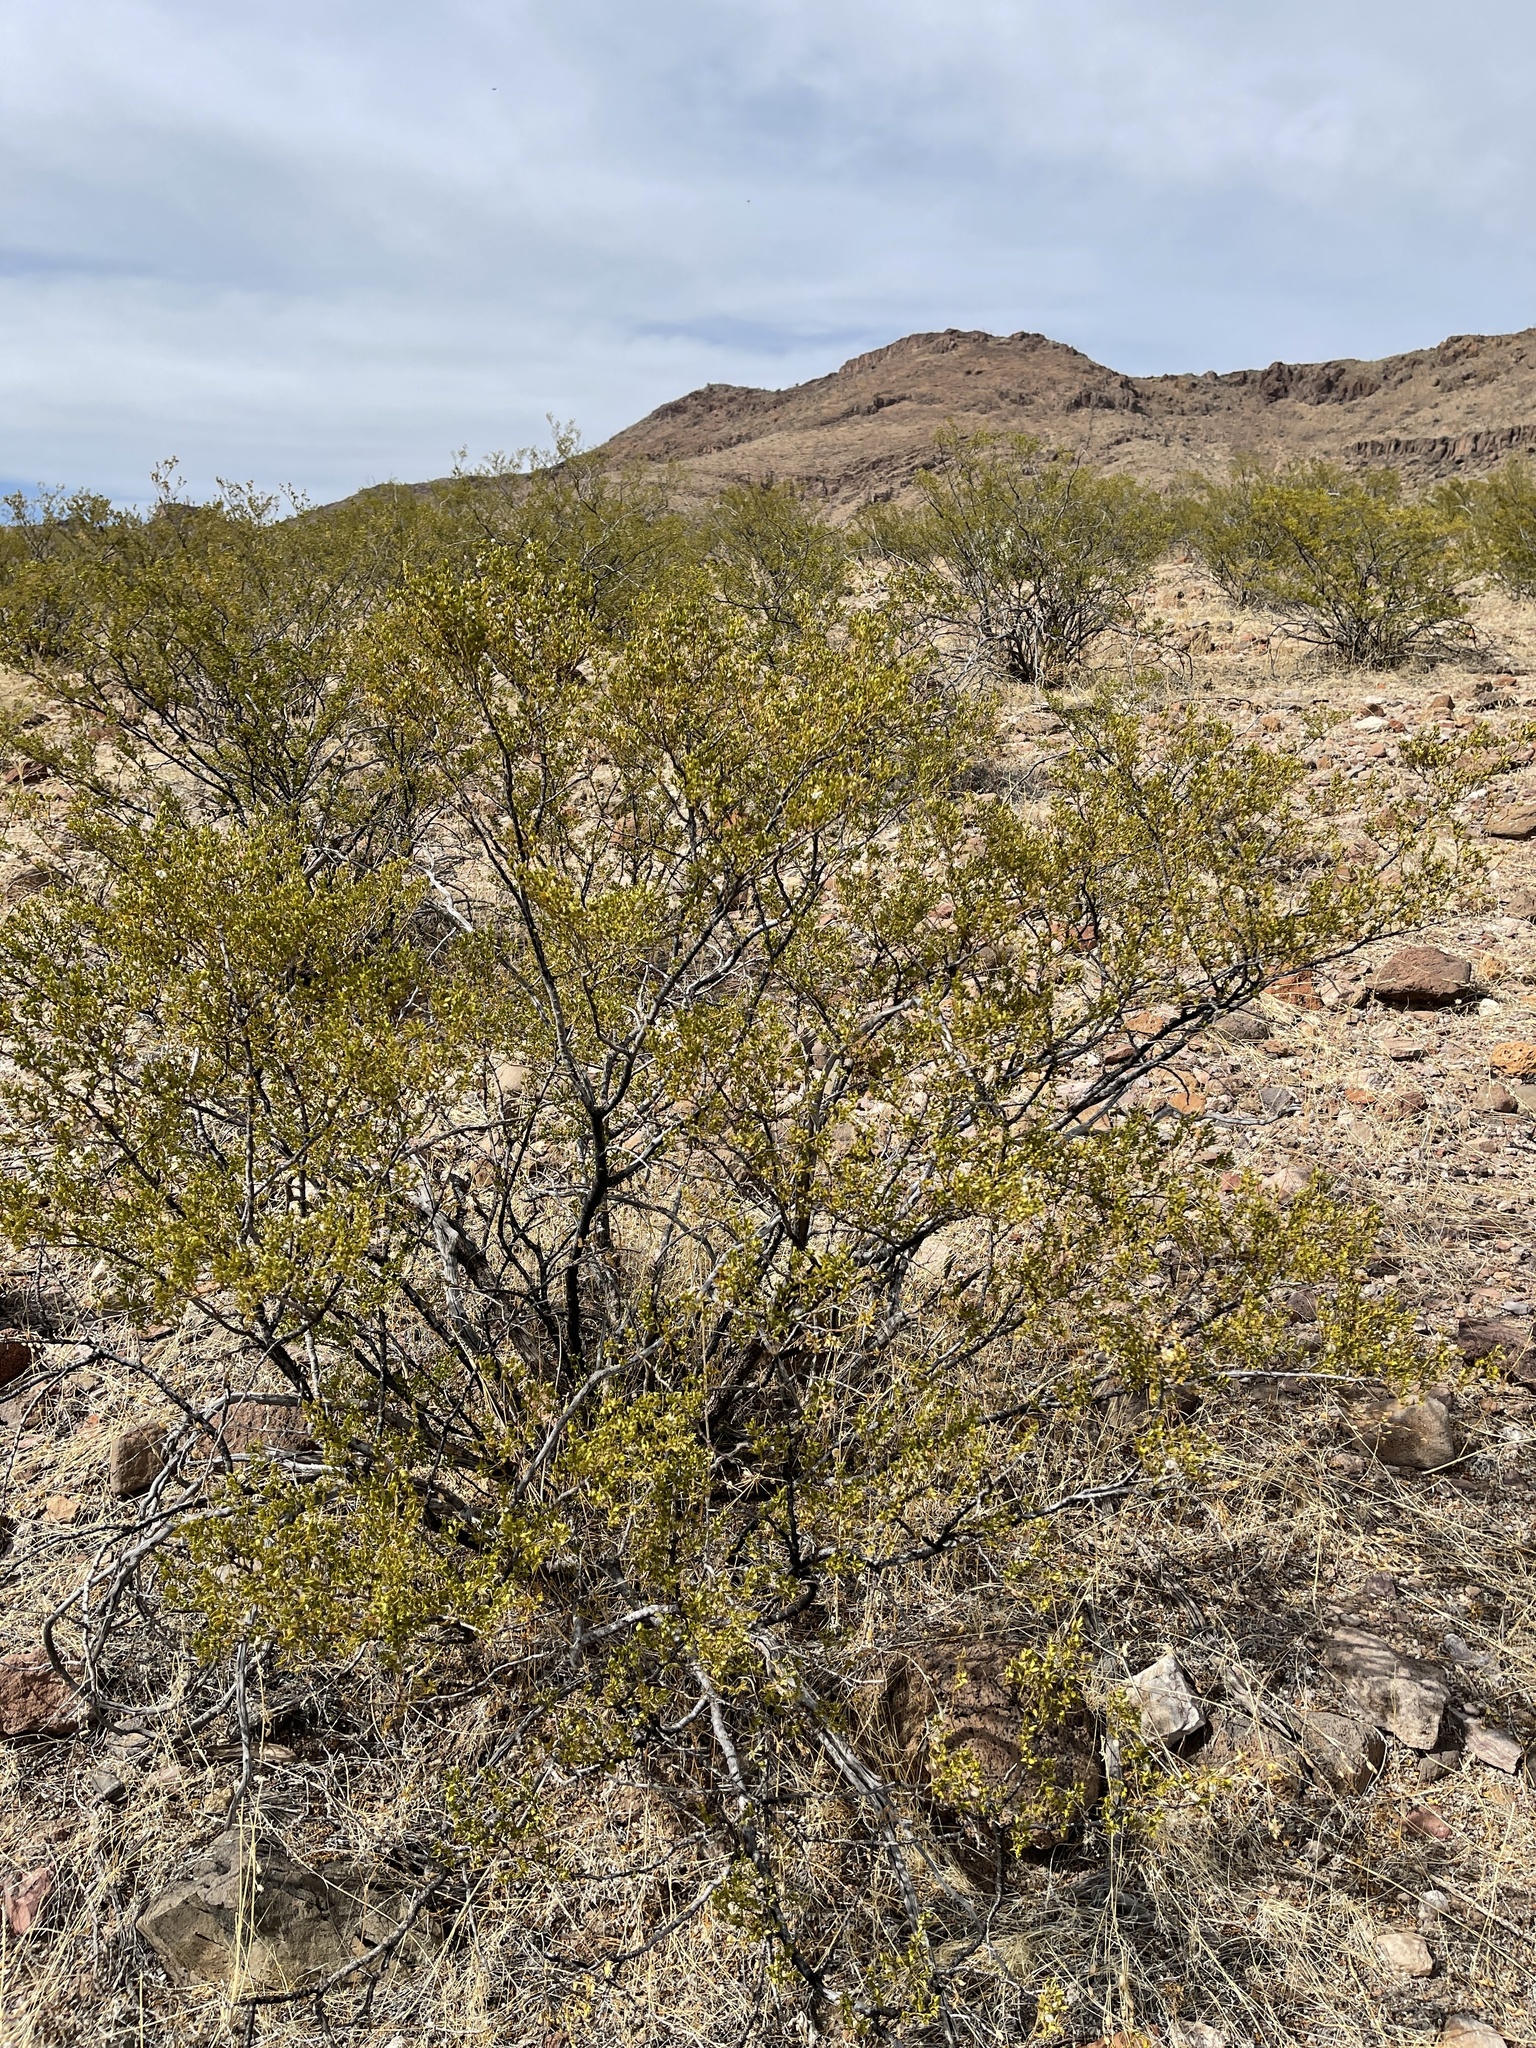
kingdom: Plantae
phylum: Tracheophyta
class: Magnoliopsida
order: Zygophyllales
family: Zygophyllaceae
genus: Larrea
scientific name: Larrea tridentata
